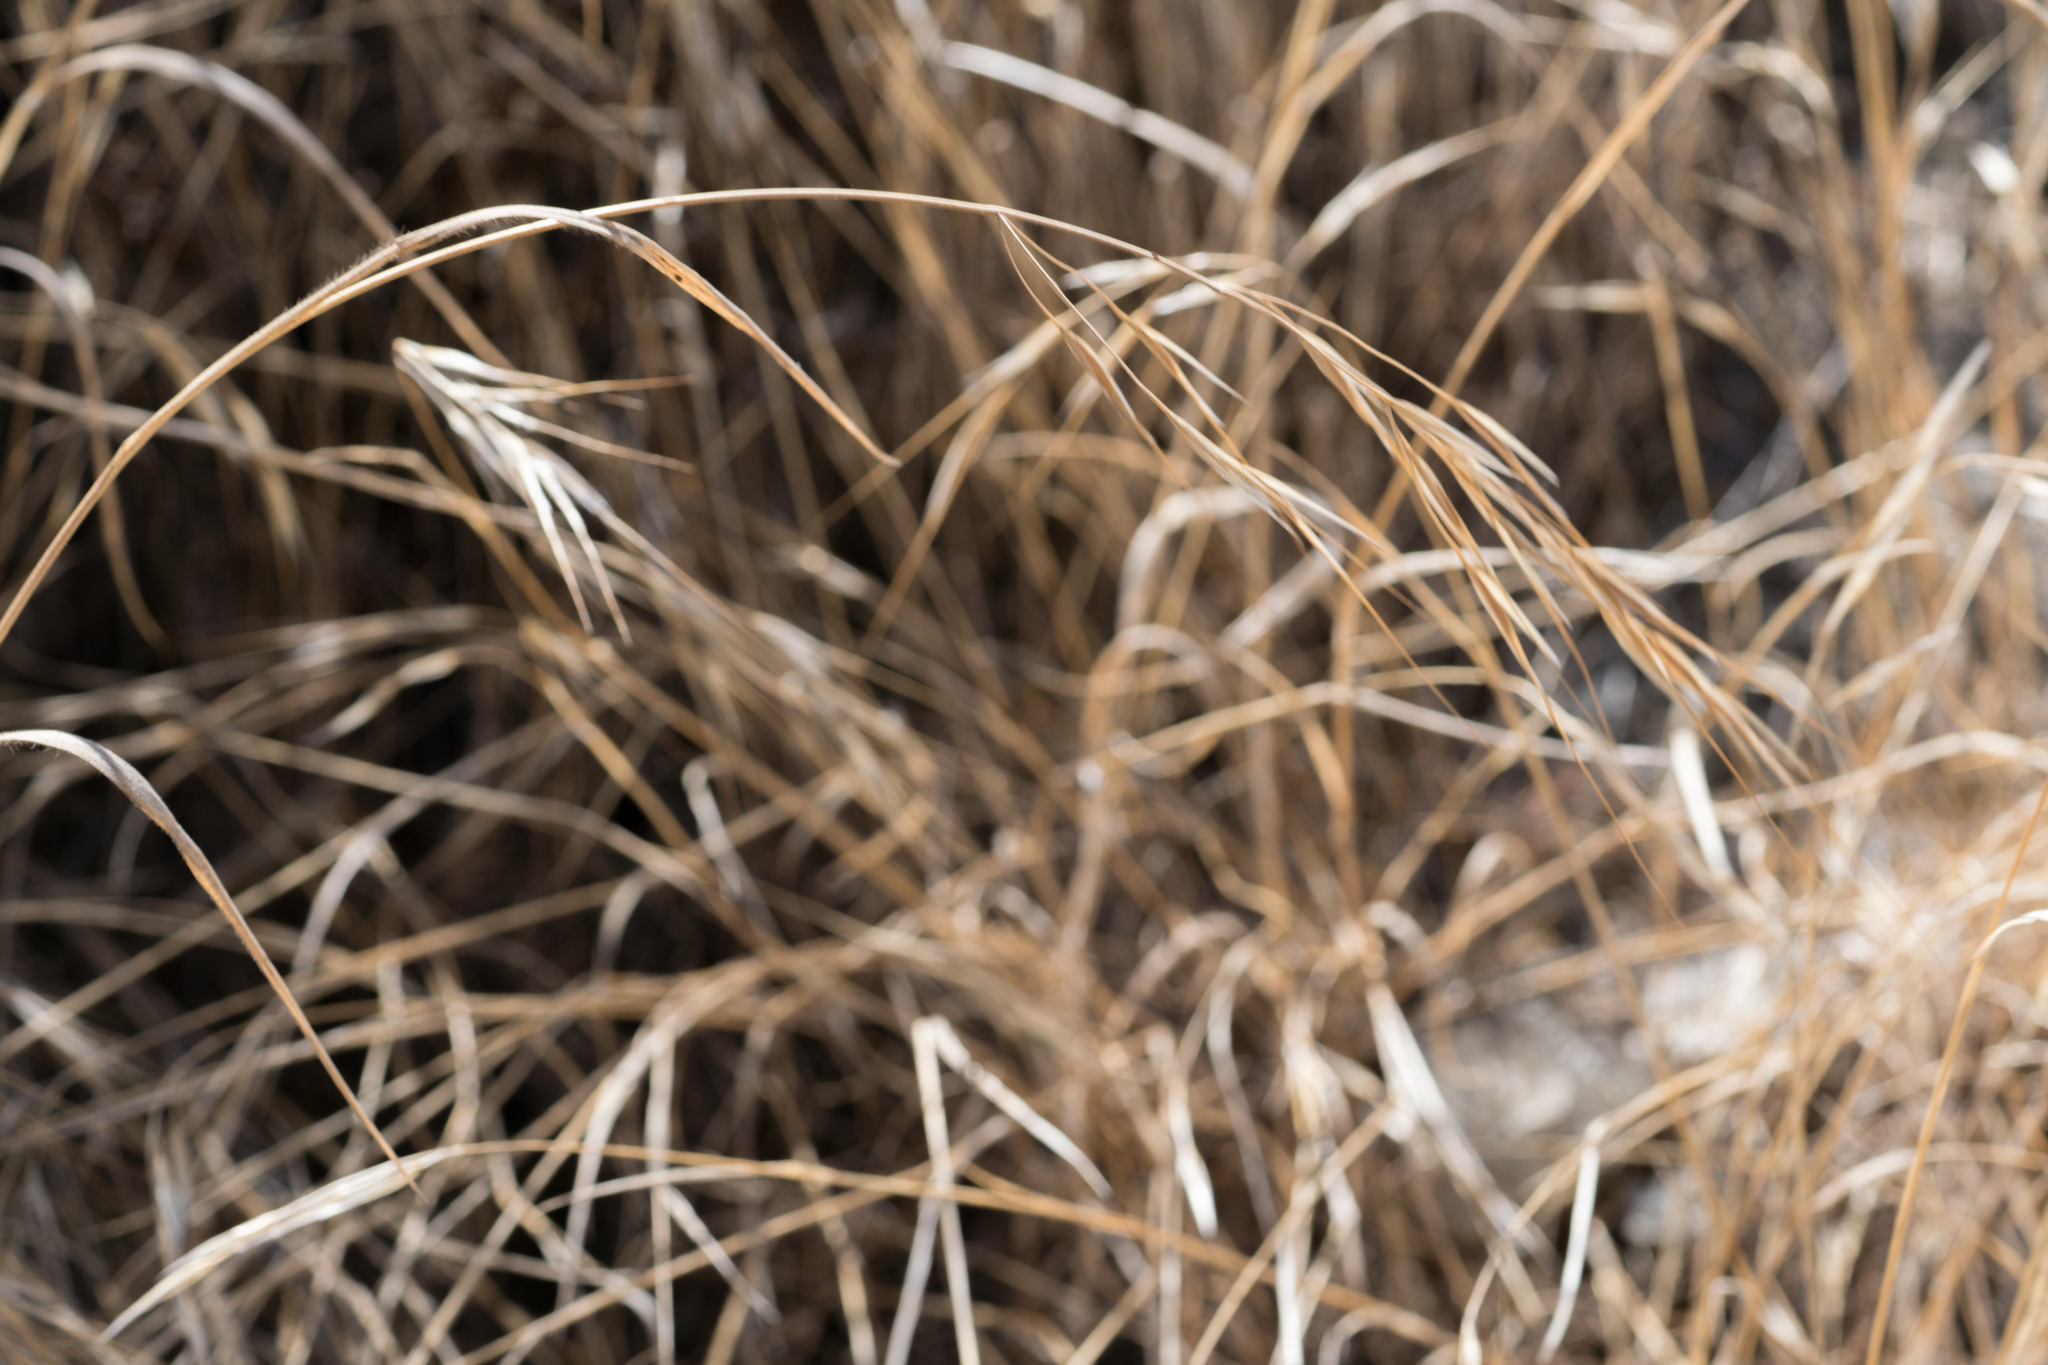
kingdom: Plantae
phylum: Tracheophyta
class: Liliopsida
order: Poales
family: Poaceae
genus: Bromus
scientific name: Bromus diandrus
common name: Ripgut brome
